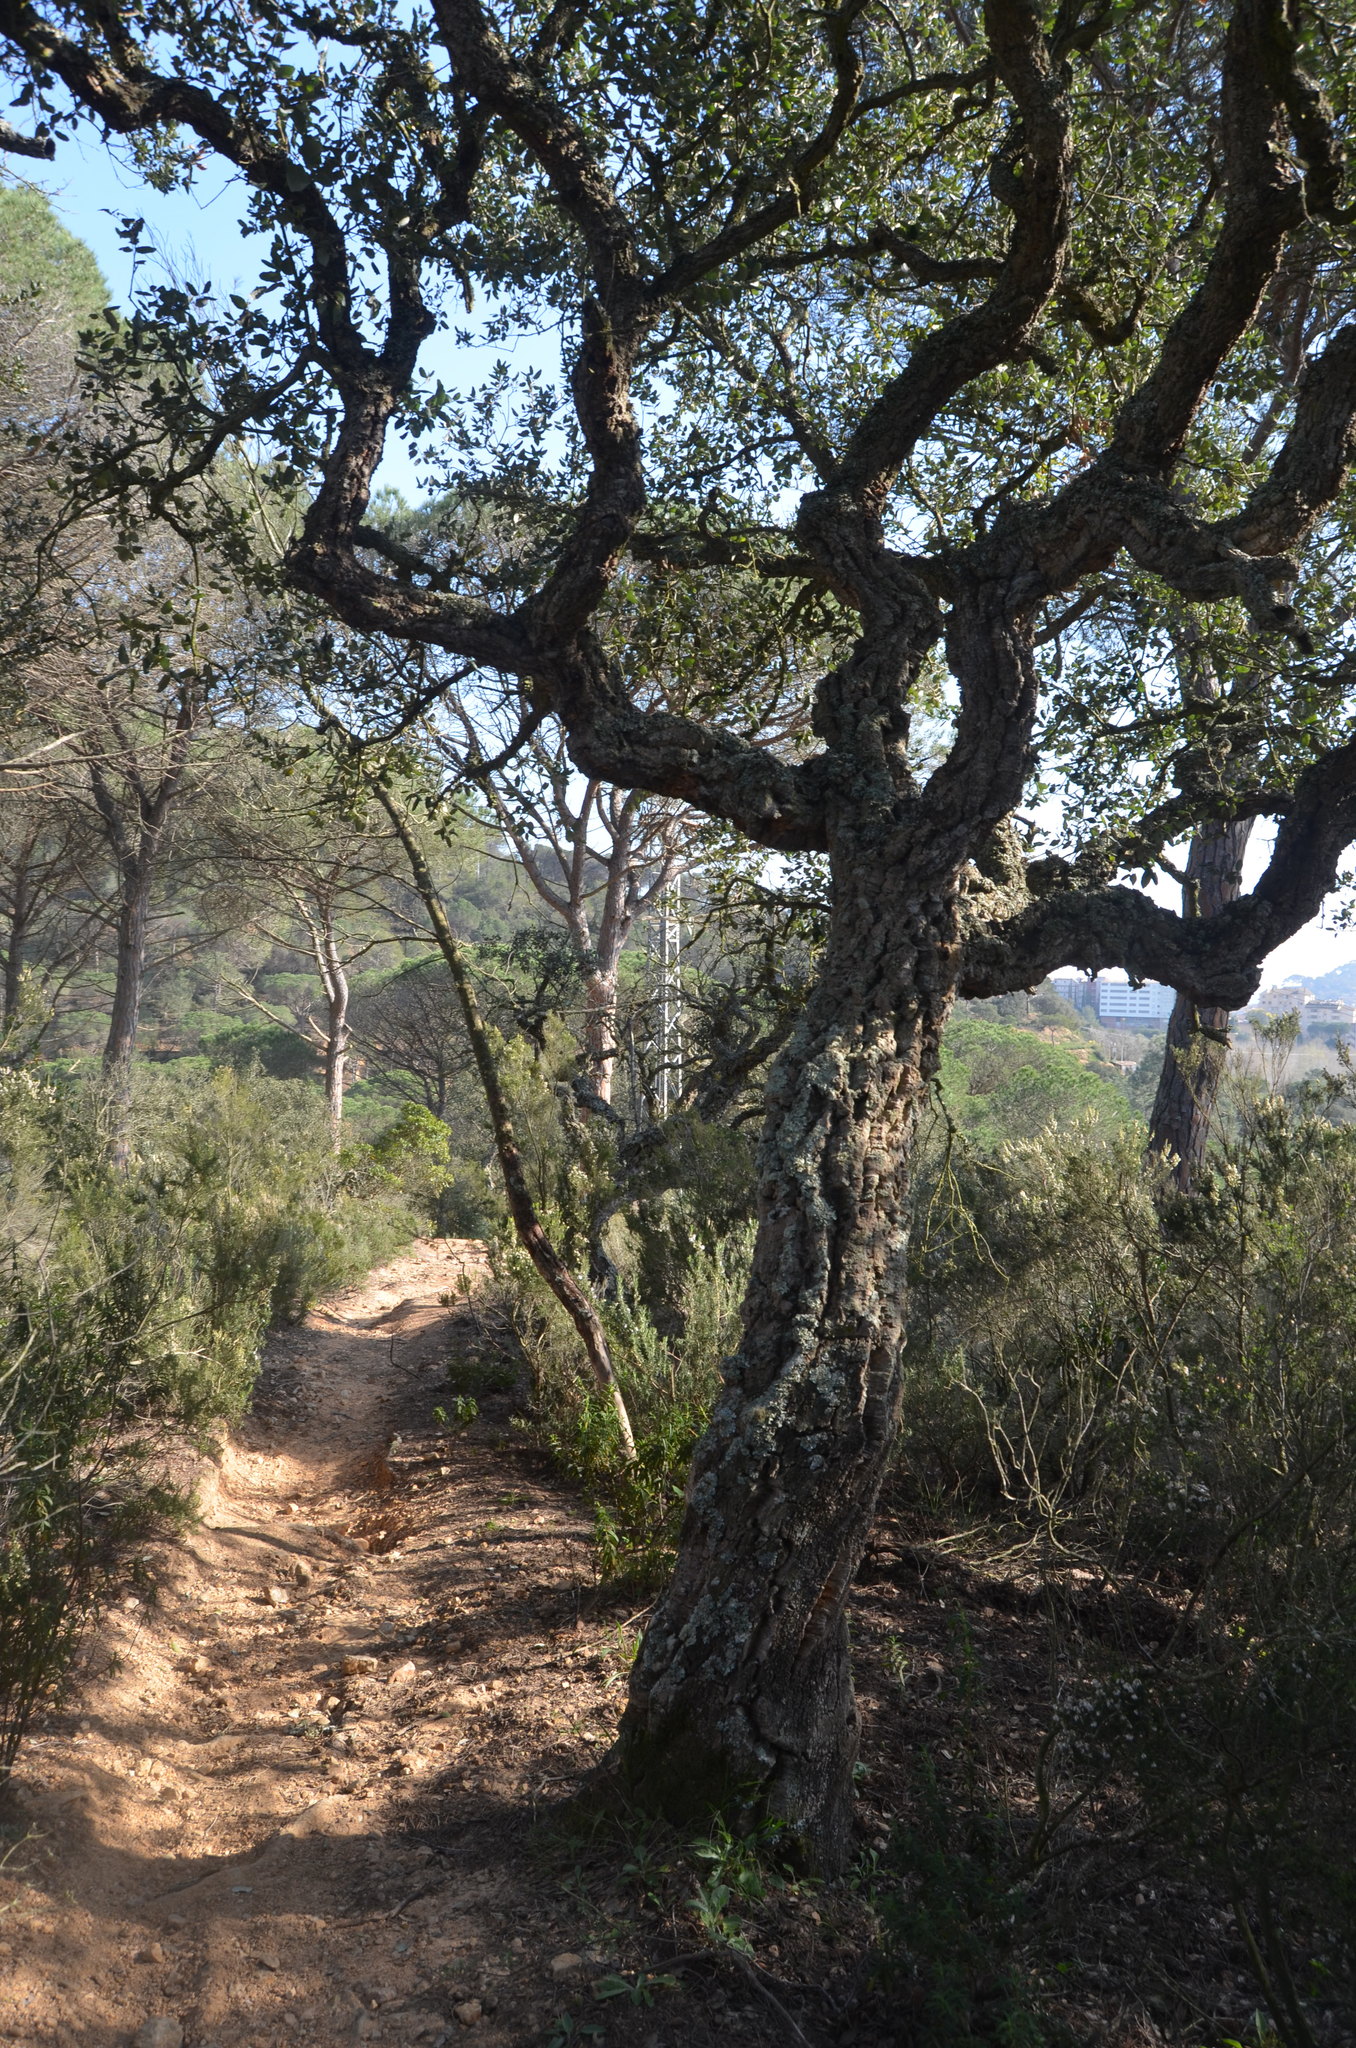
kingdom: Plantae
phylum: Tracheophyta
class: Magnoliopsida
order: Fagales
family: Fagaceae
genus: Quercus
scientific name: Quercus suber
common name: Cork oak
